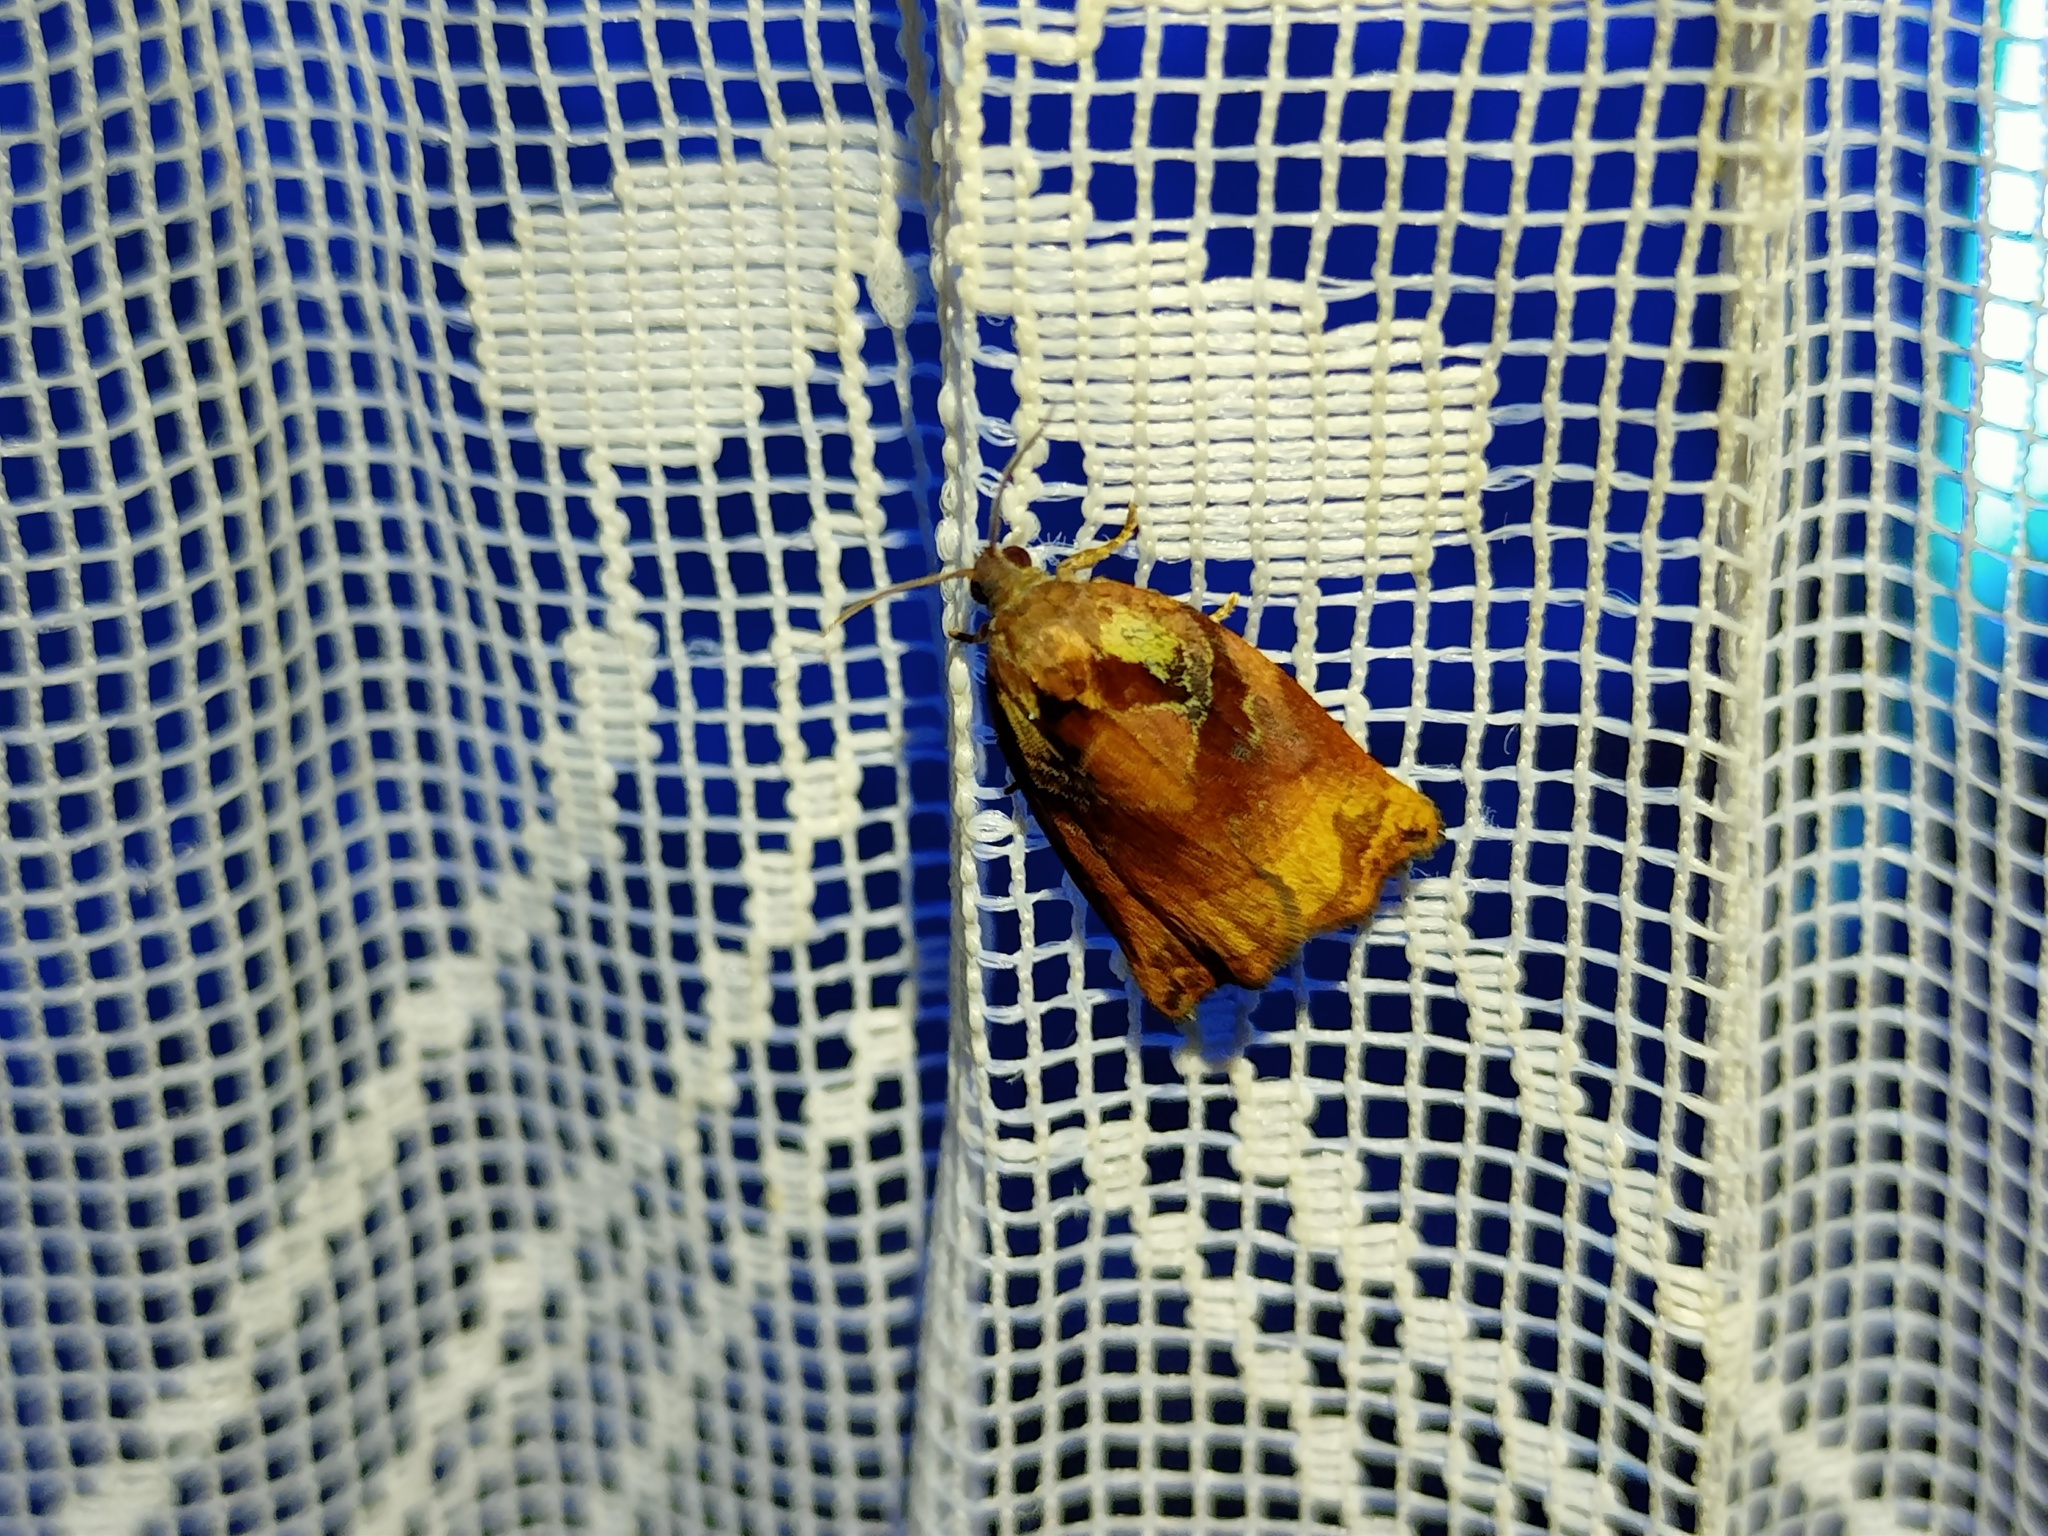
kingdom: Animalia
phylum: Arthropoda
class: Insecta
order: Lepidoptera
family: Tortricidae
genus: Archips
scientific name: Archips podana
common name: Large fruit-tree tortrix
